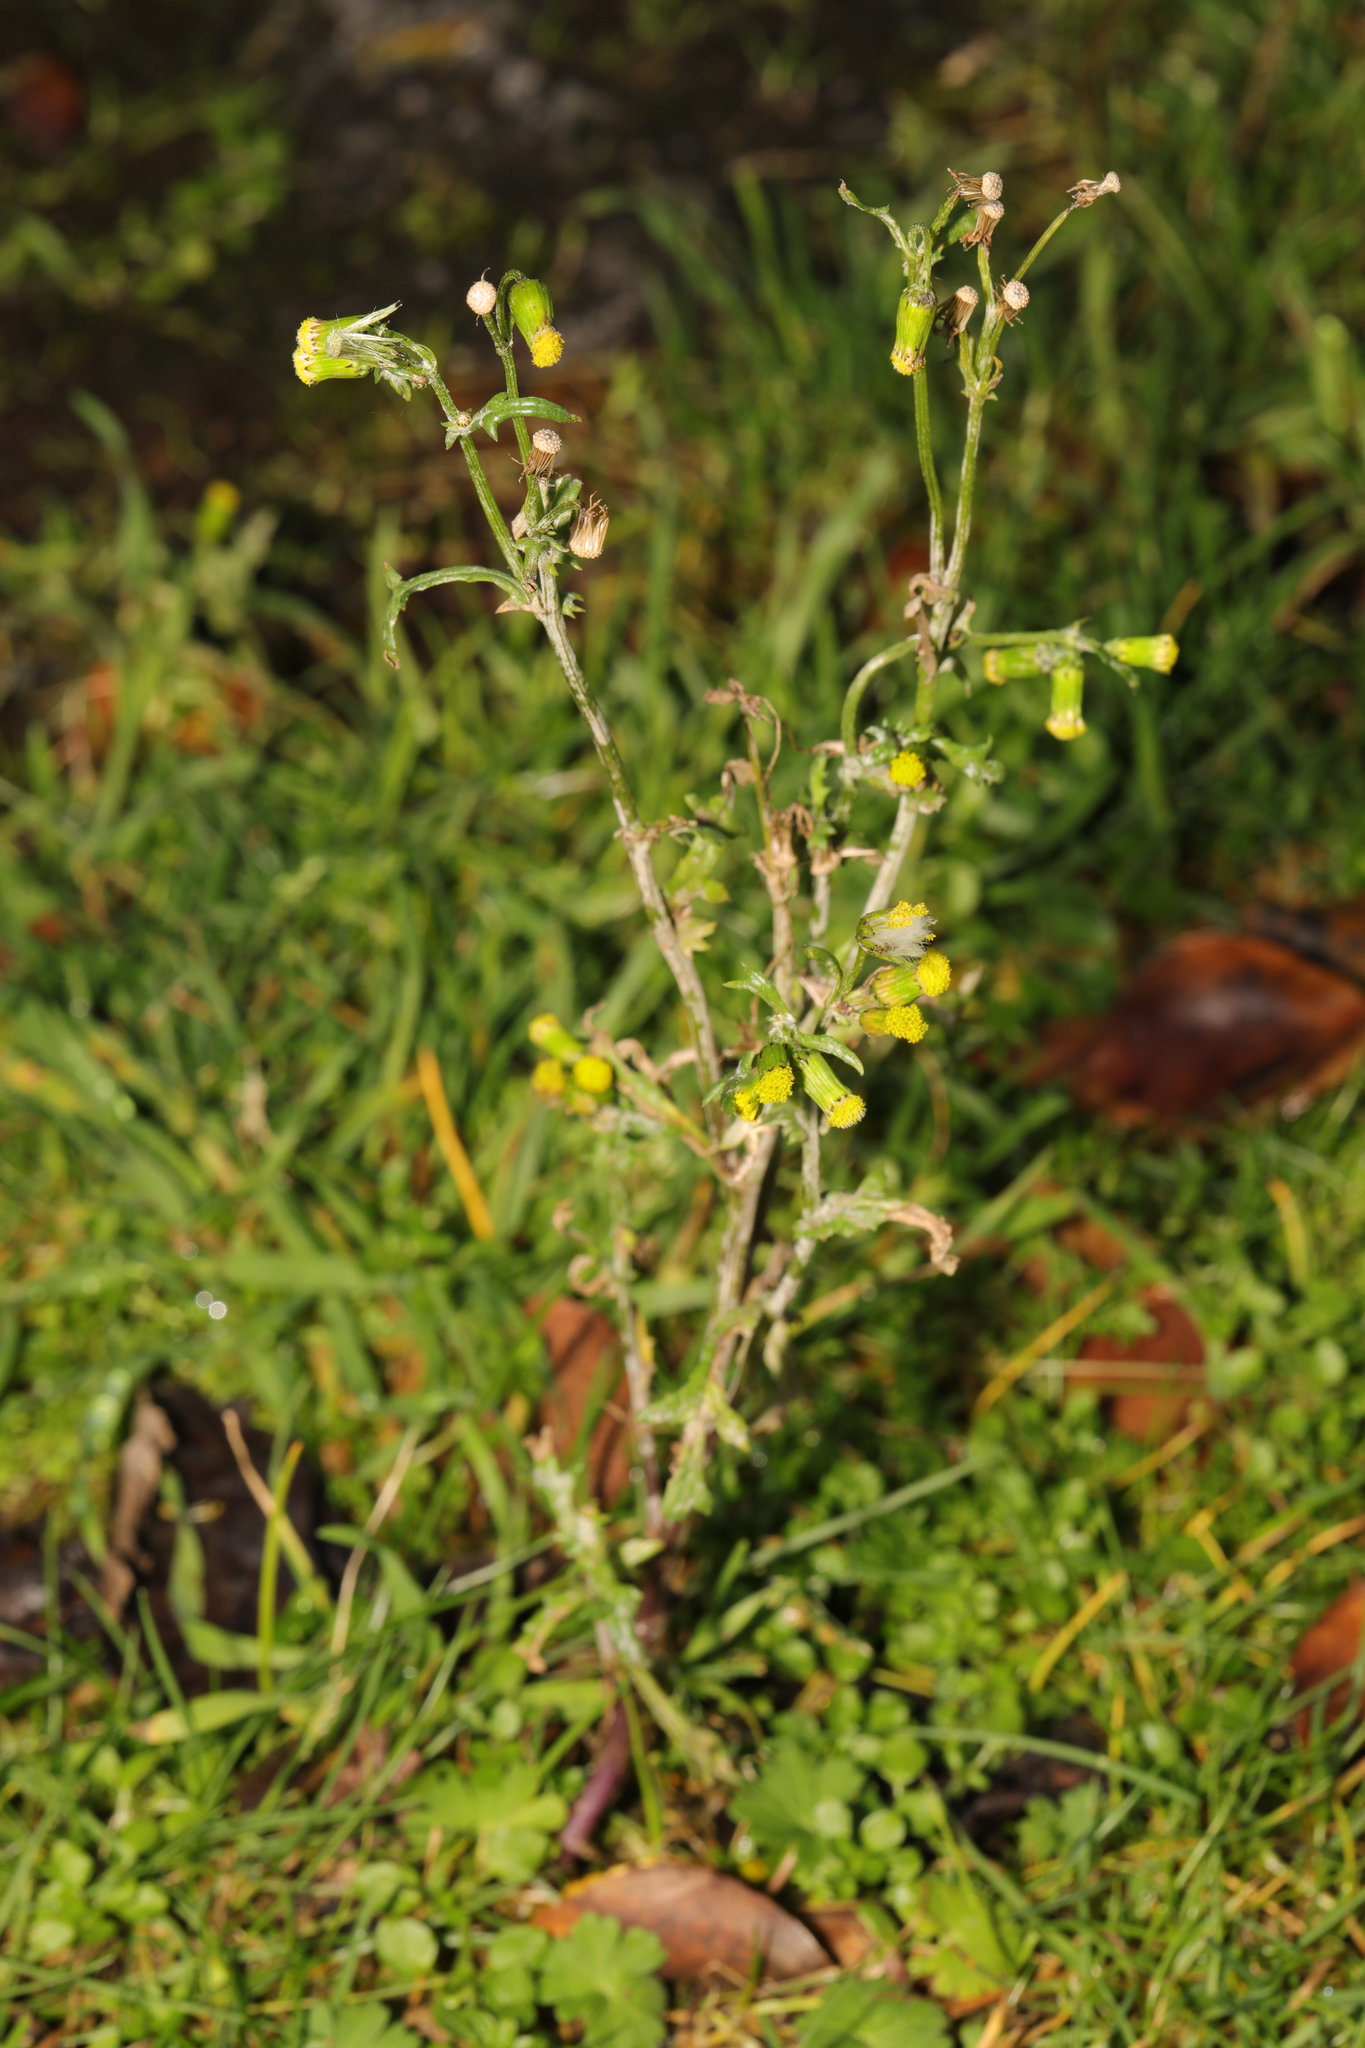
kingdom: Plantae
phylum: Tracheophyta
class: Magnoliopsida
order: Asterales
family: Asteraceae
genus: Senecio
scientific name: Senecio vulgaris
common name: Old-man-in-the-spring
